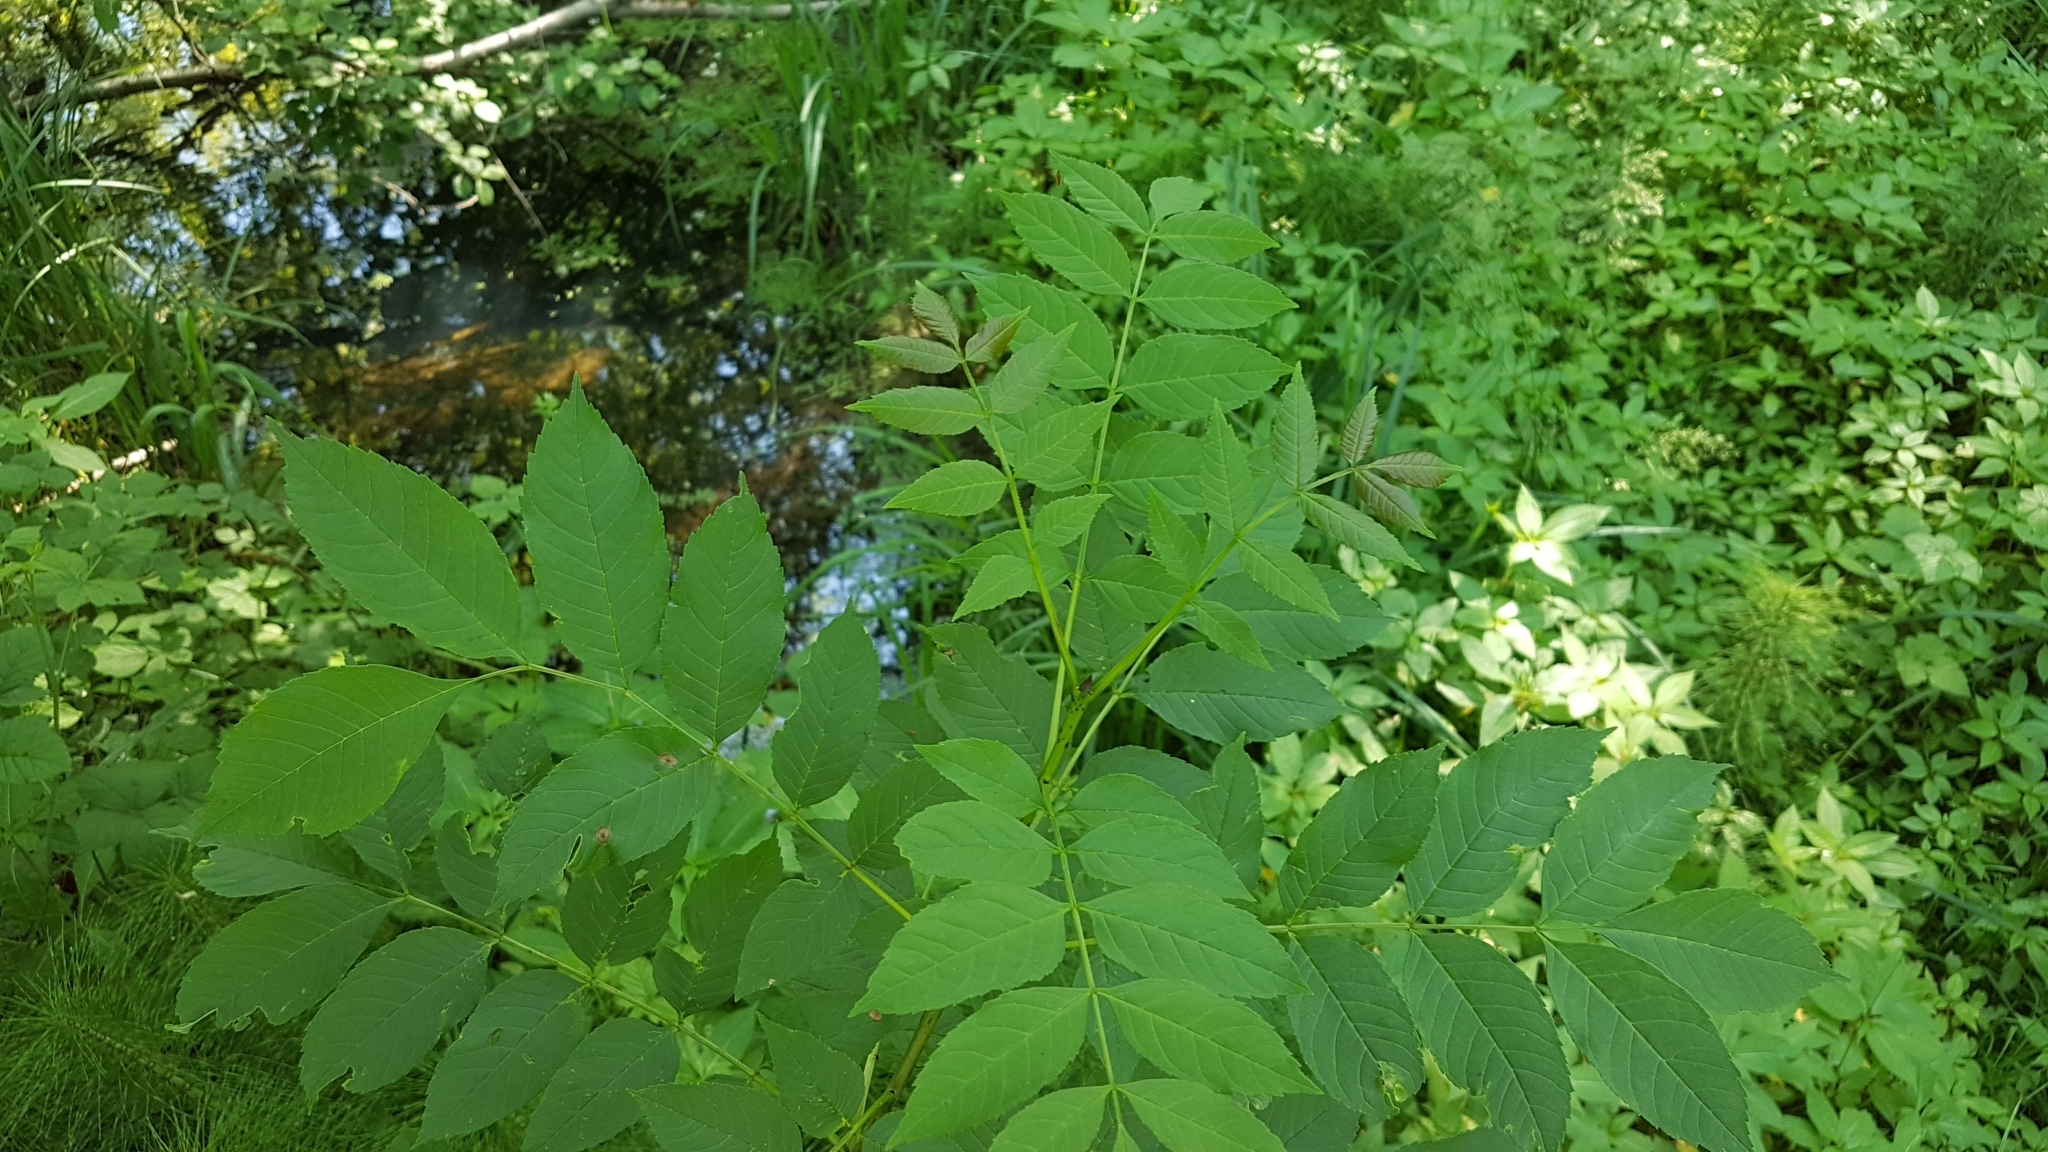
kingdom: Plantae
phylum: Tracheophyta
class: Magnoliopsida
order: Lamiales
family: Oleaceae
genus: Fraxinus
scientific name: Fraxinus excelsior
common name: European ash
